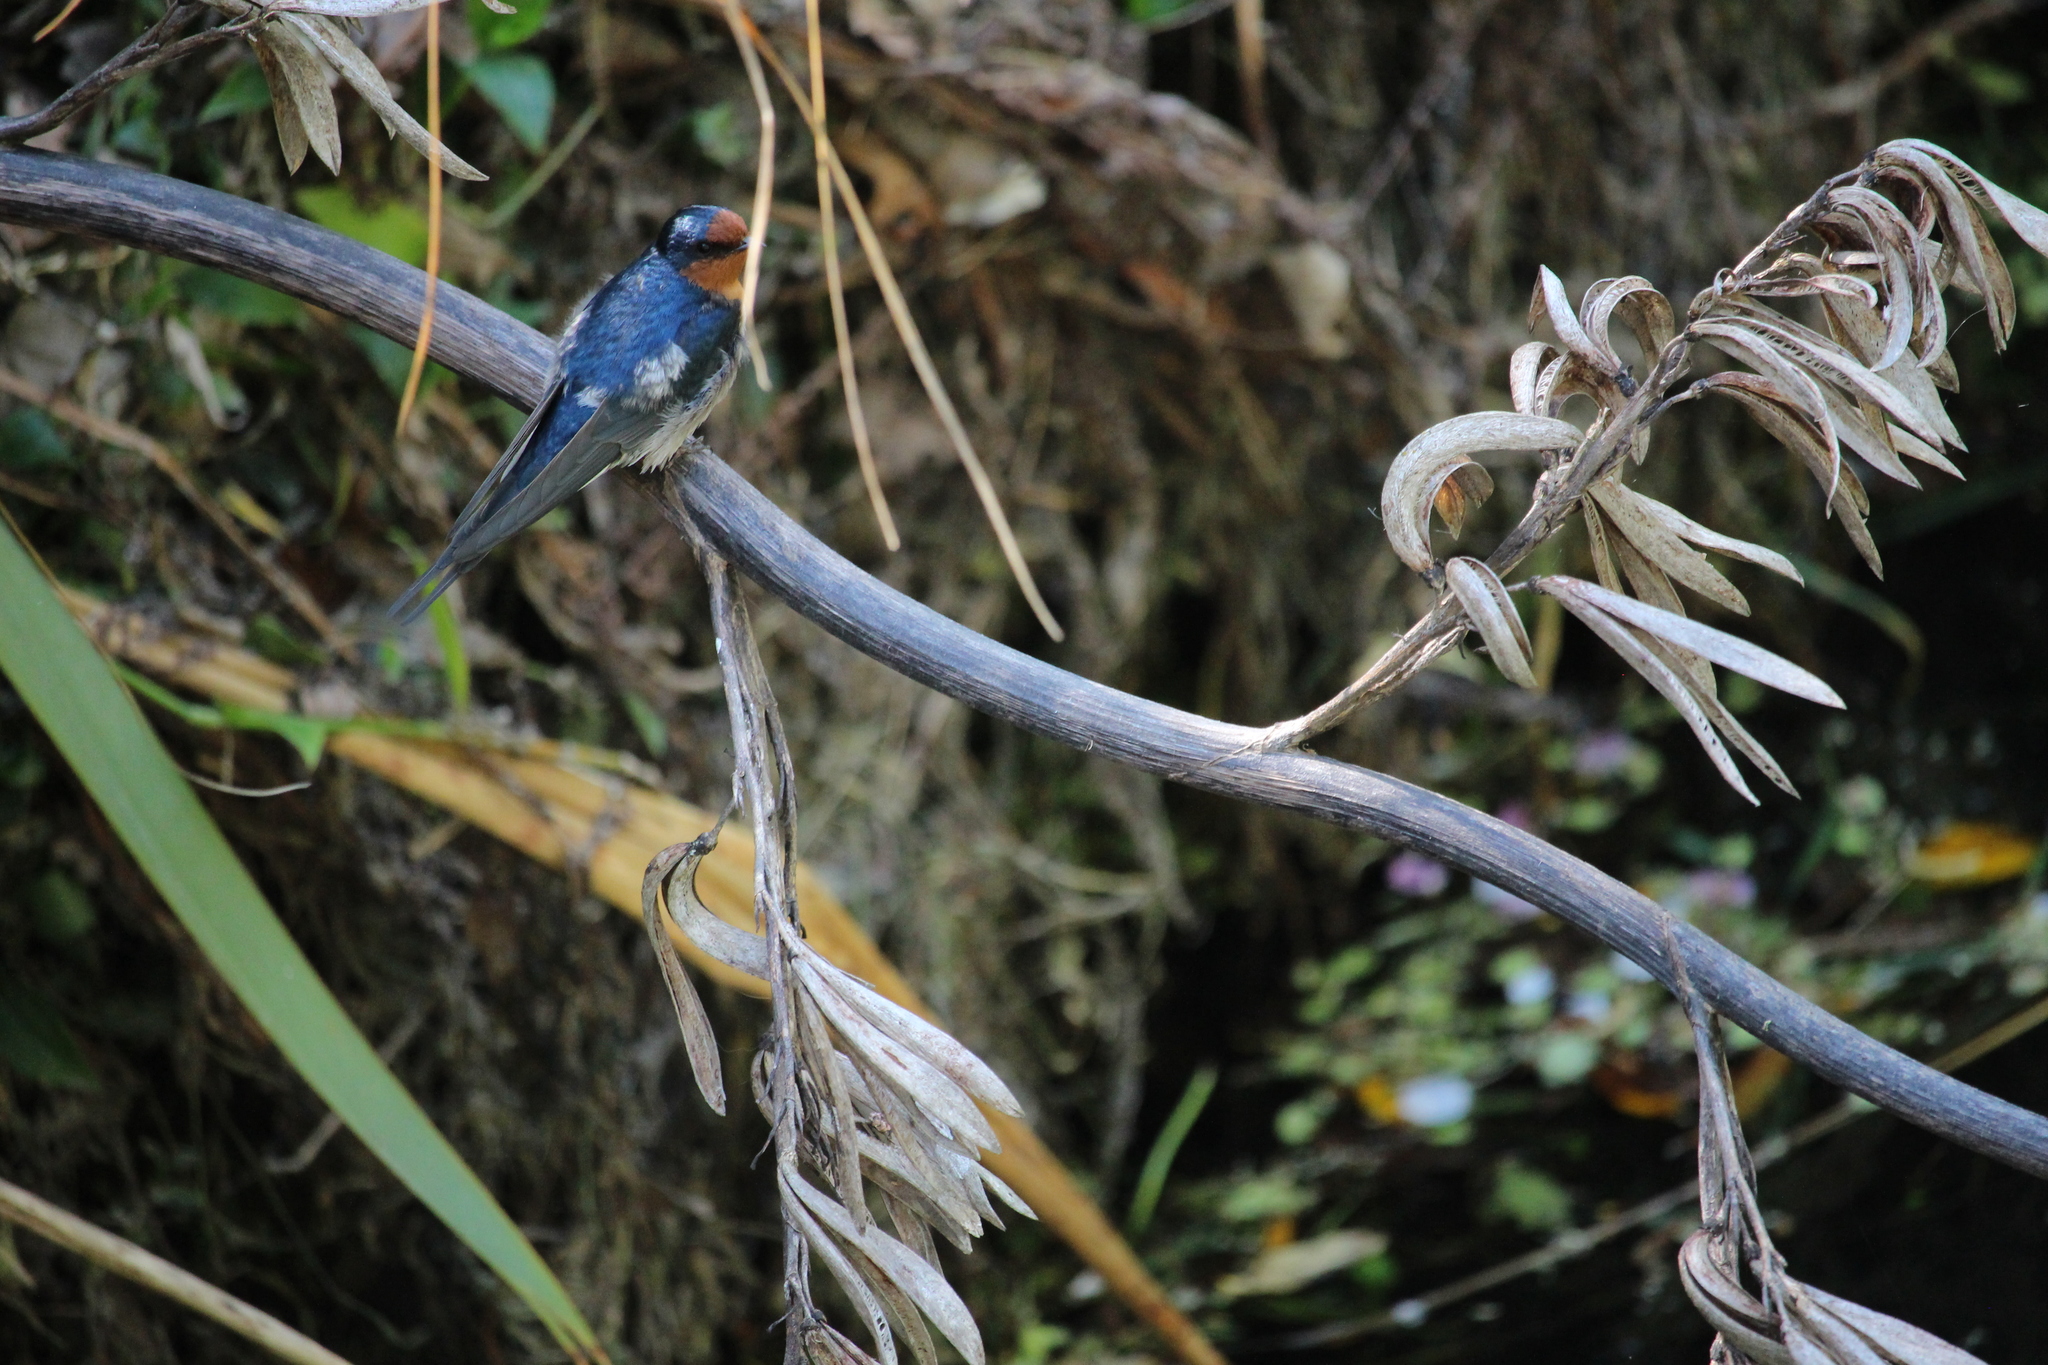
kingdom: Animalia
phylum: Chordata
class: Aves
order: Passeriformes
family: Hirundinidae
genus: Hirundo
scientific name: Hirundo neoxena
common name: Welcome swallow
